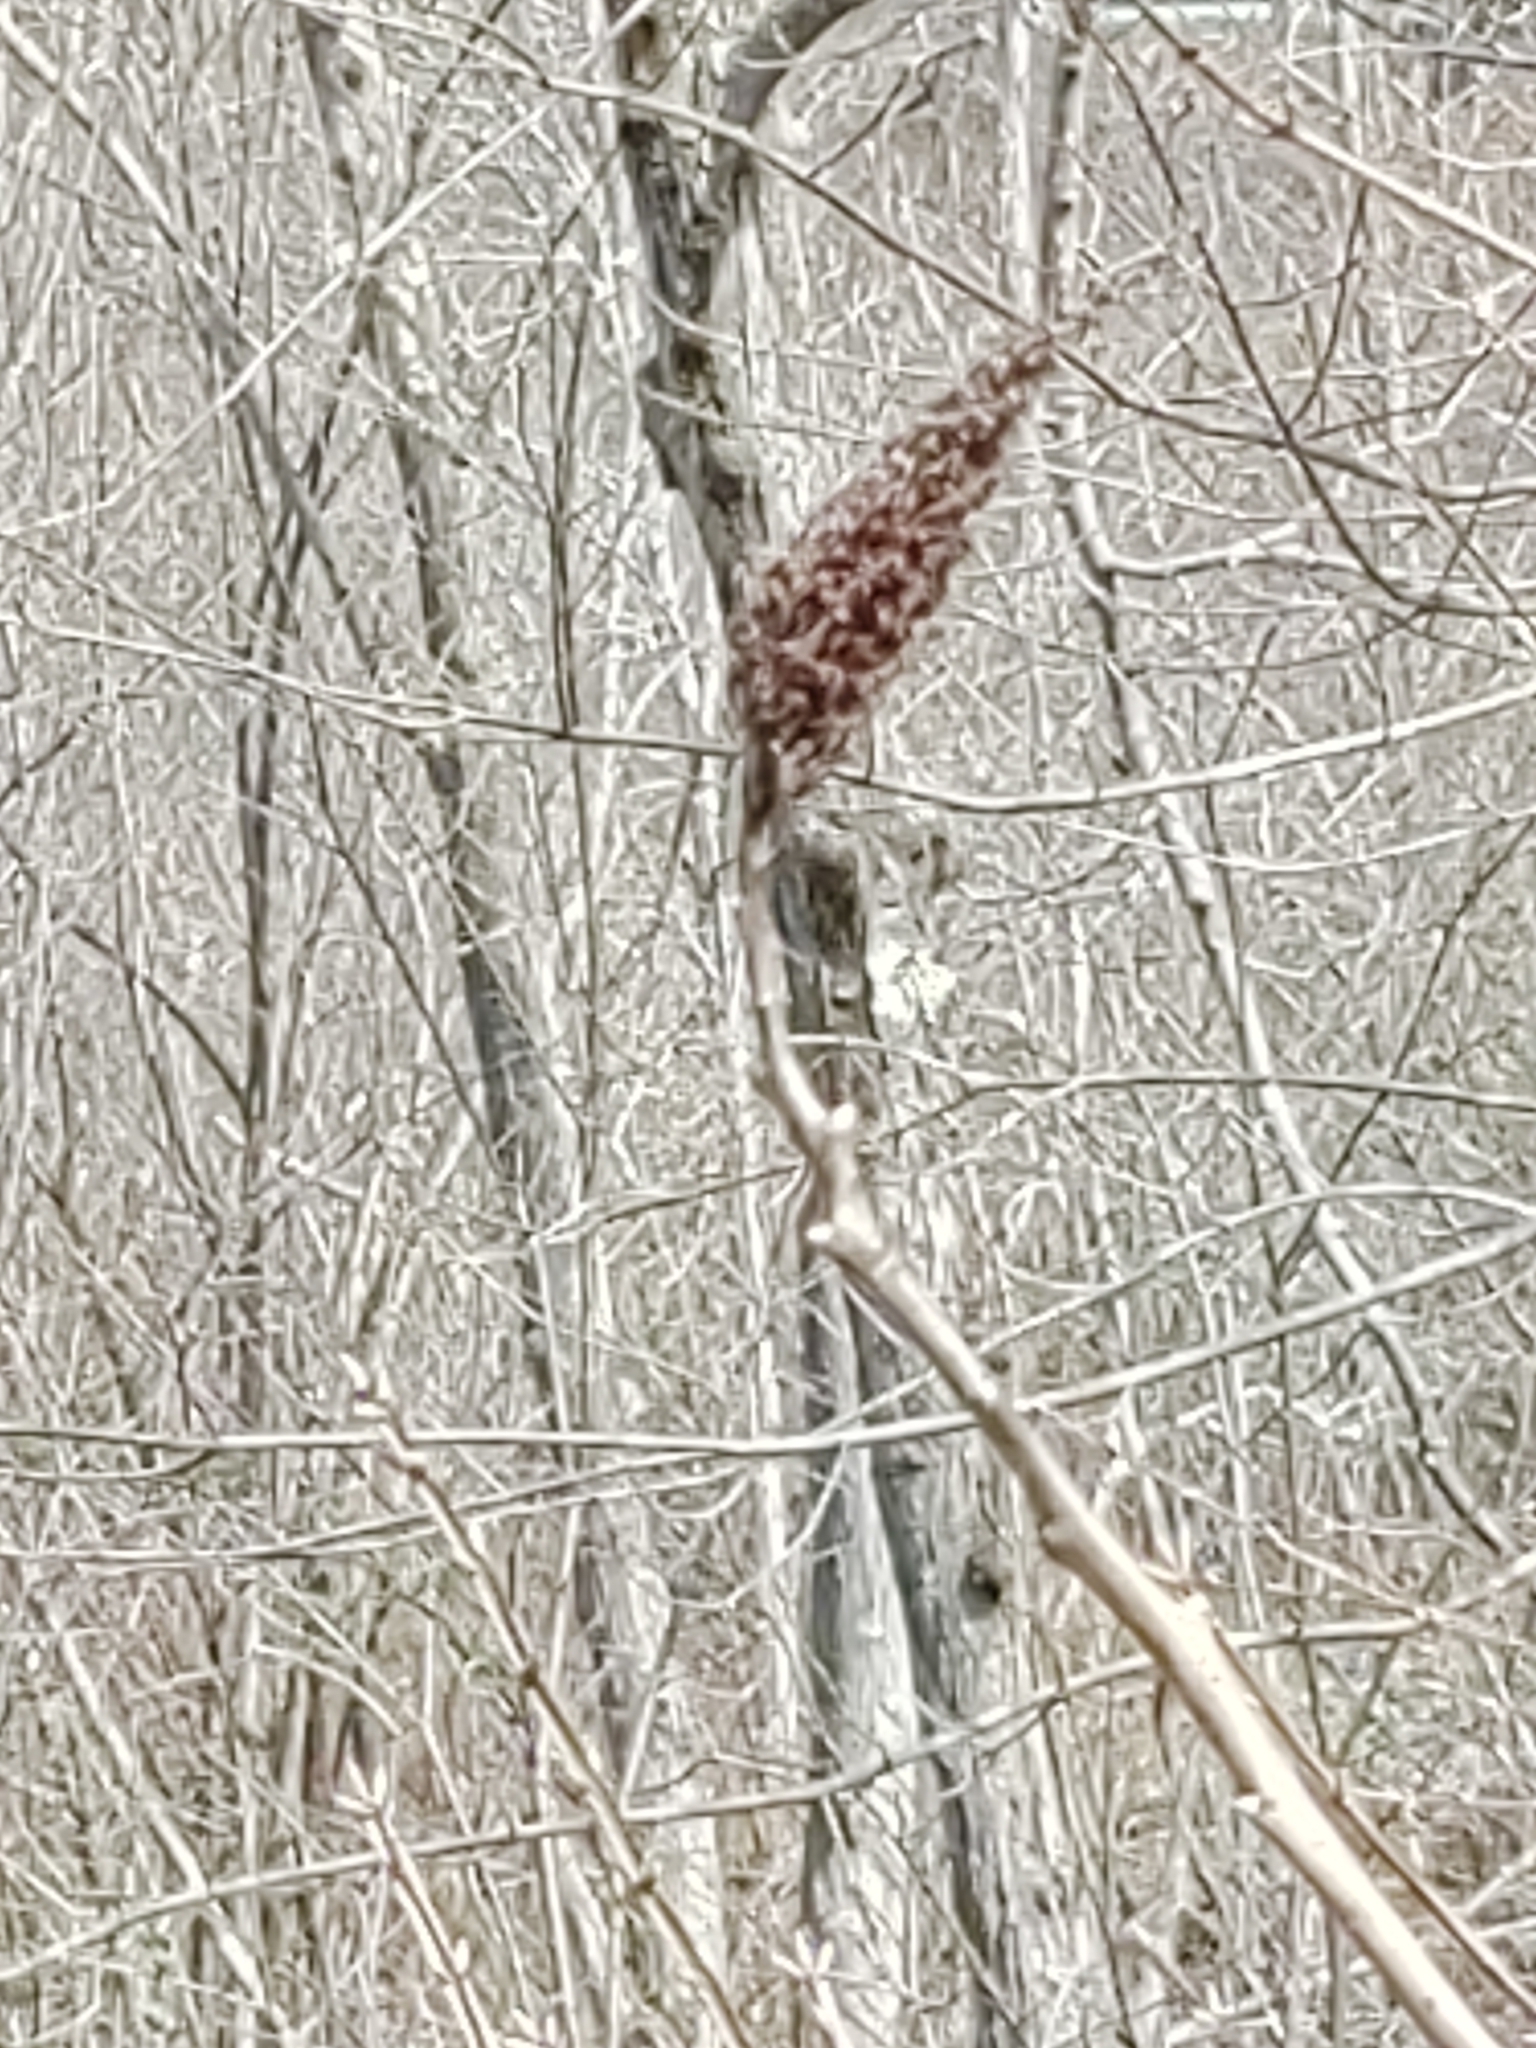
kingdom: Plantae
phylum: Tracheophyta
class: Magnoliopsida
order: Sapindales
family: Anacardiaceae
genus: Rhus
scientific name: Rhus
